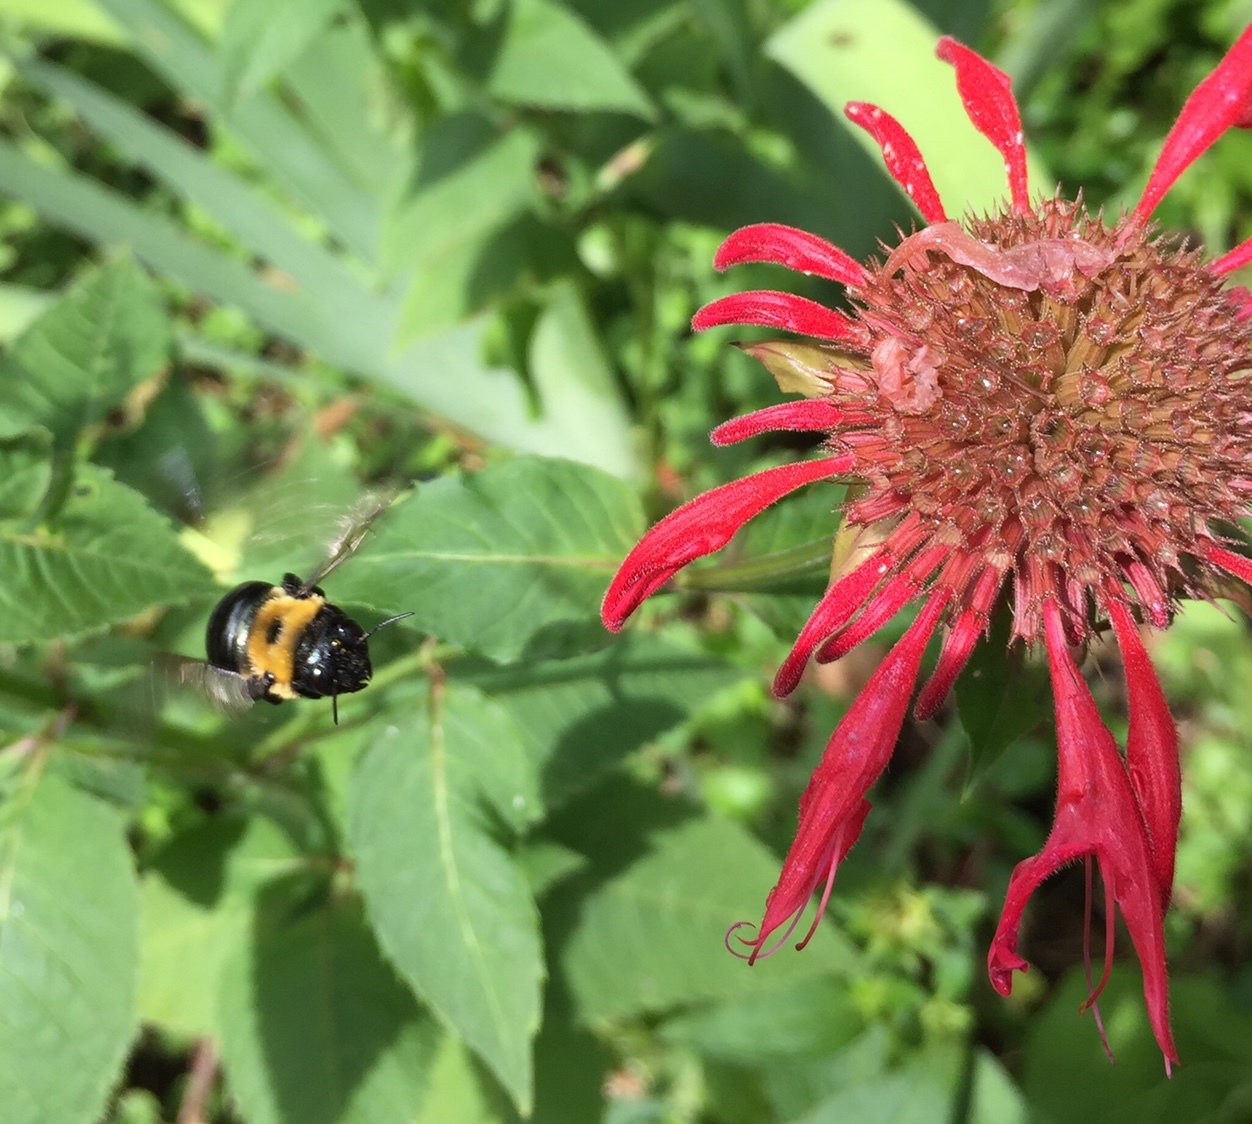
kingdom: Animalia
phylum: Arthropoda
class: Insecta
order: Hymenoptera
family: Apidae
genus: Xylocopa
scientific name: Xylocopa virginica
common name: Carpenter bee
